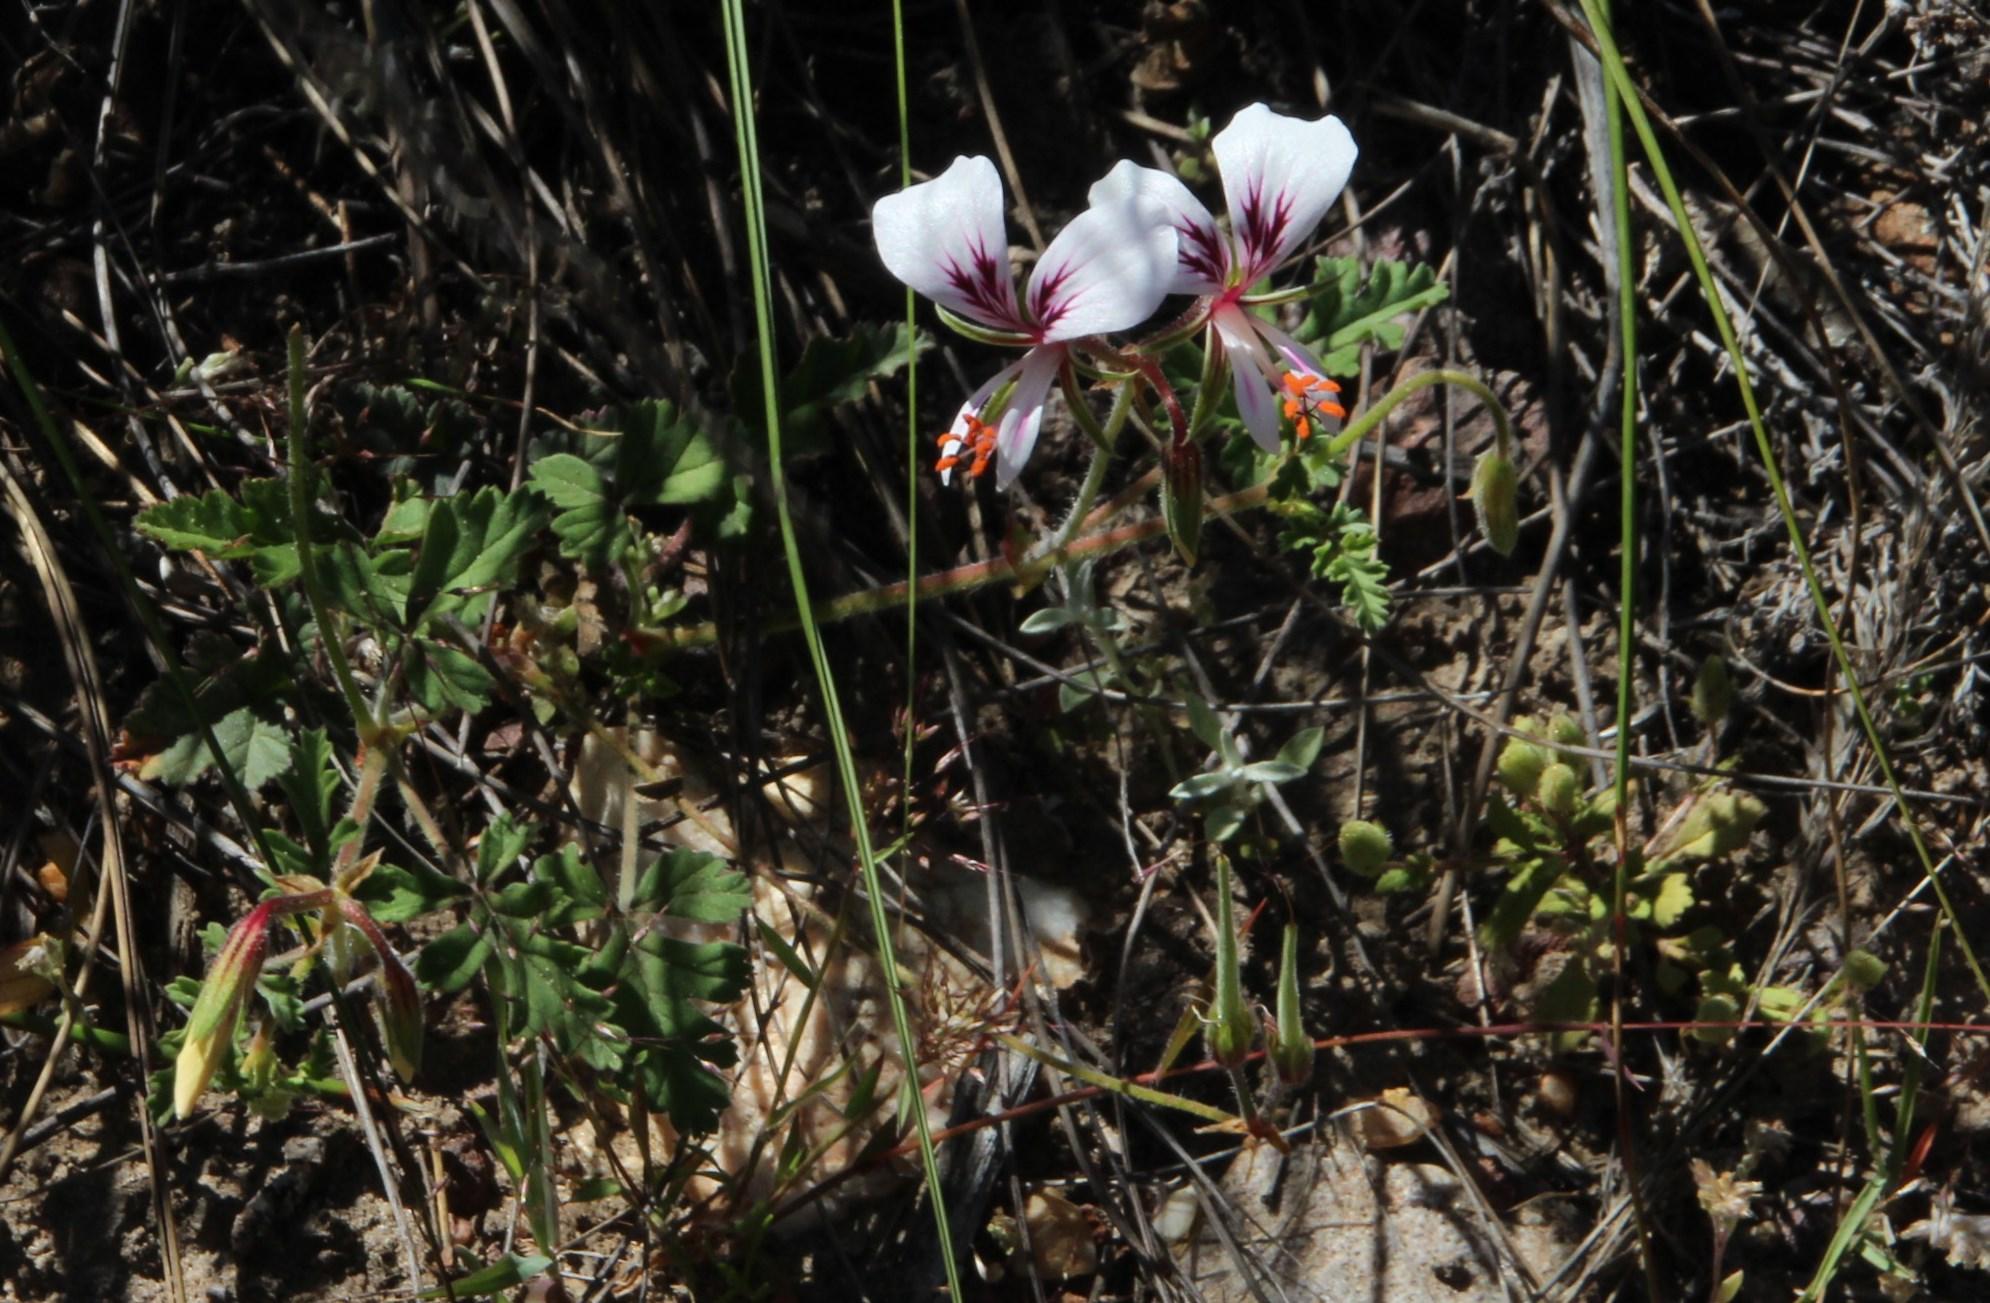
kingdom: Plantae
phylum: Tracheophyta
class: Magnoliopsida
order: Geraniales
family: Geraniaceae
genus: Pelargonium
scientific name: Pelargonium longicaule
